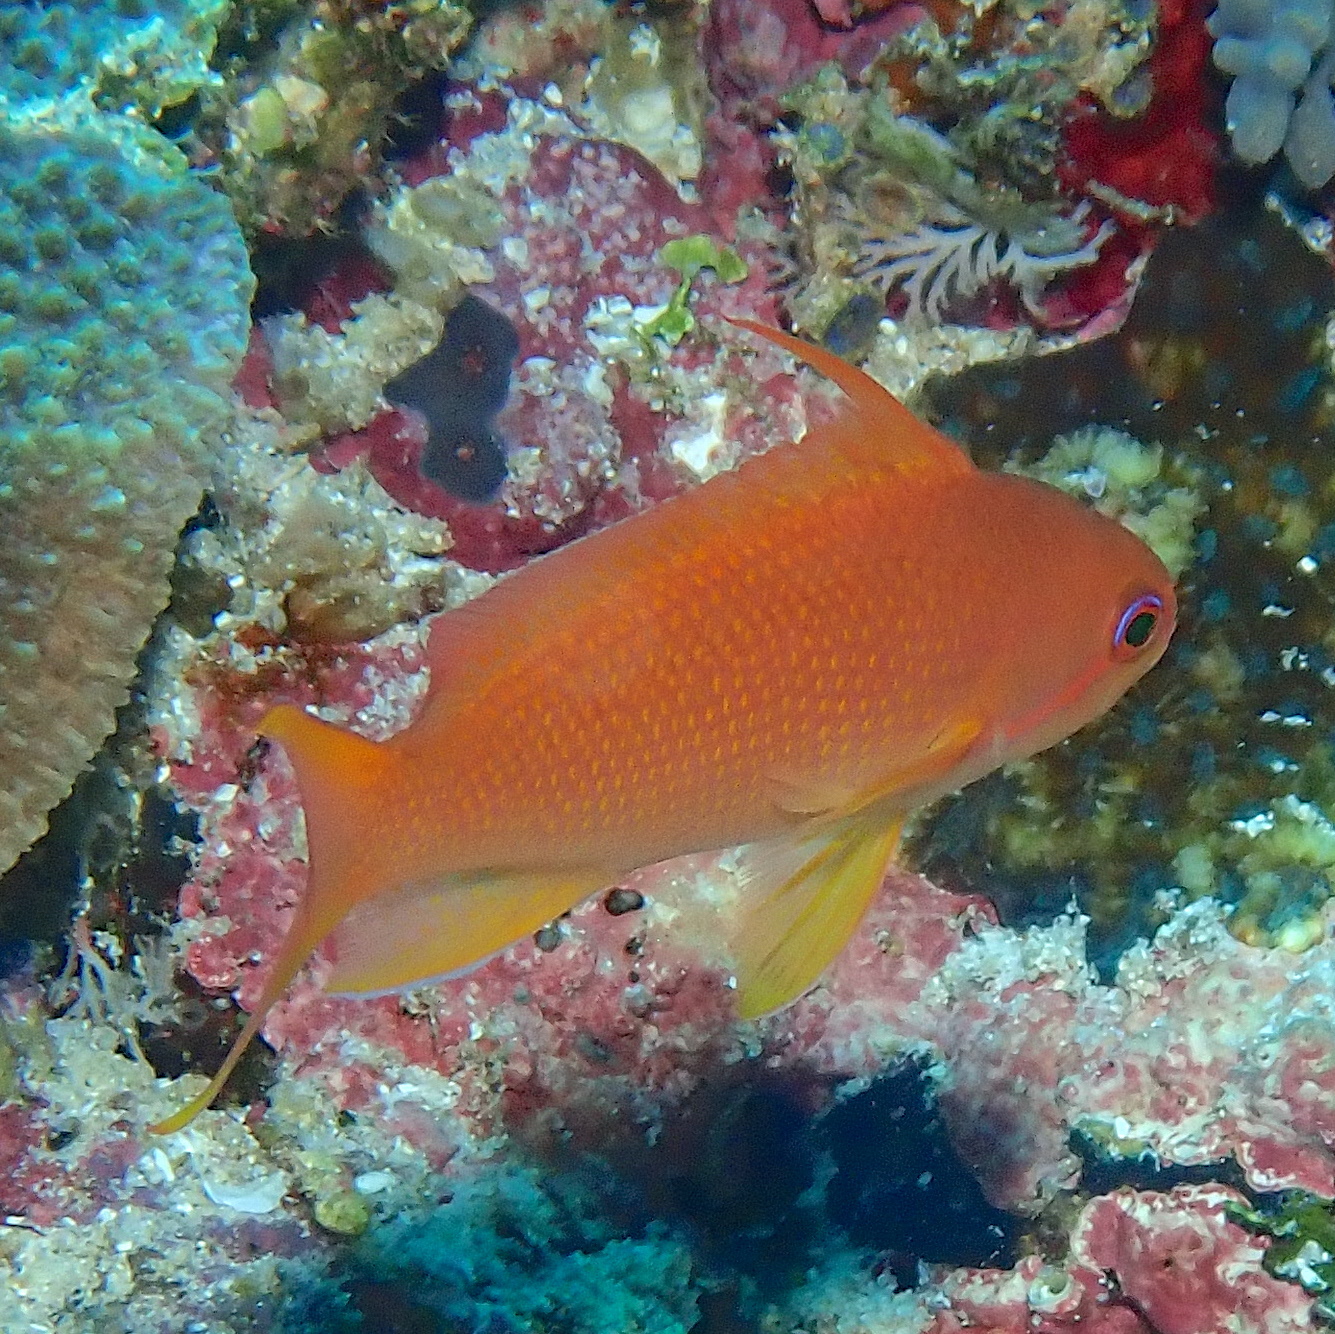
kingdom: Animalia
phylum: Chordata
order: Perciformes
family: Serranidae
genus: Pseudanthias
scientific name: Pseudanthias squamipinnis
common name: Scalefin anthias
